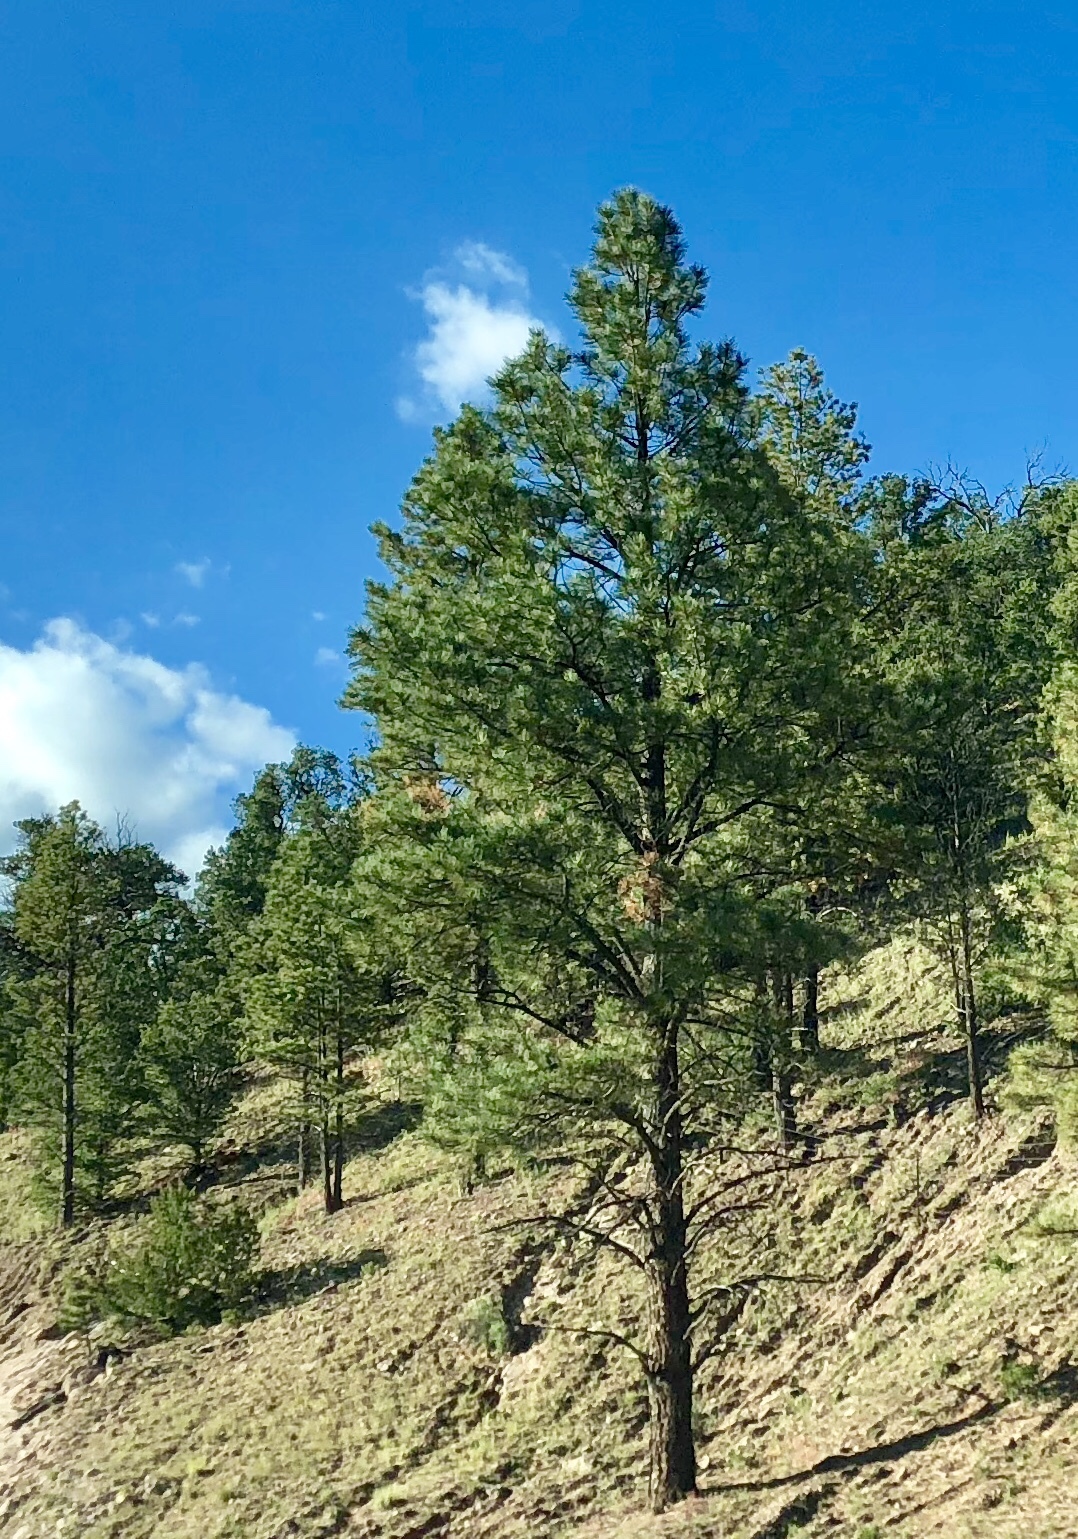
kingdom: Plantae
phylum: Tracheophyta
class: Pinopsida
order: Pinales
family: Pinaceae
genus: Pinus
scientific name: Pinus ponderosa
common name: Western yellow-pine
